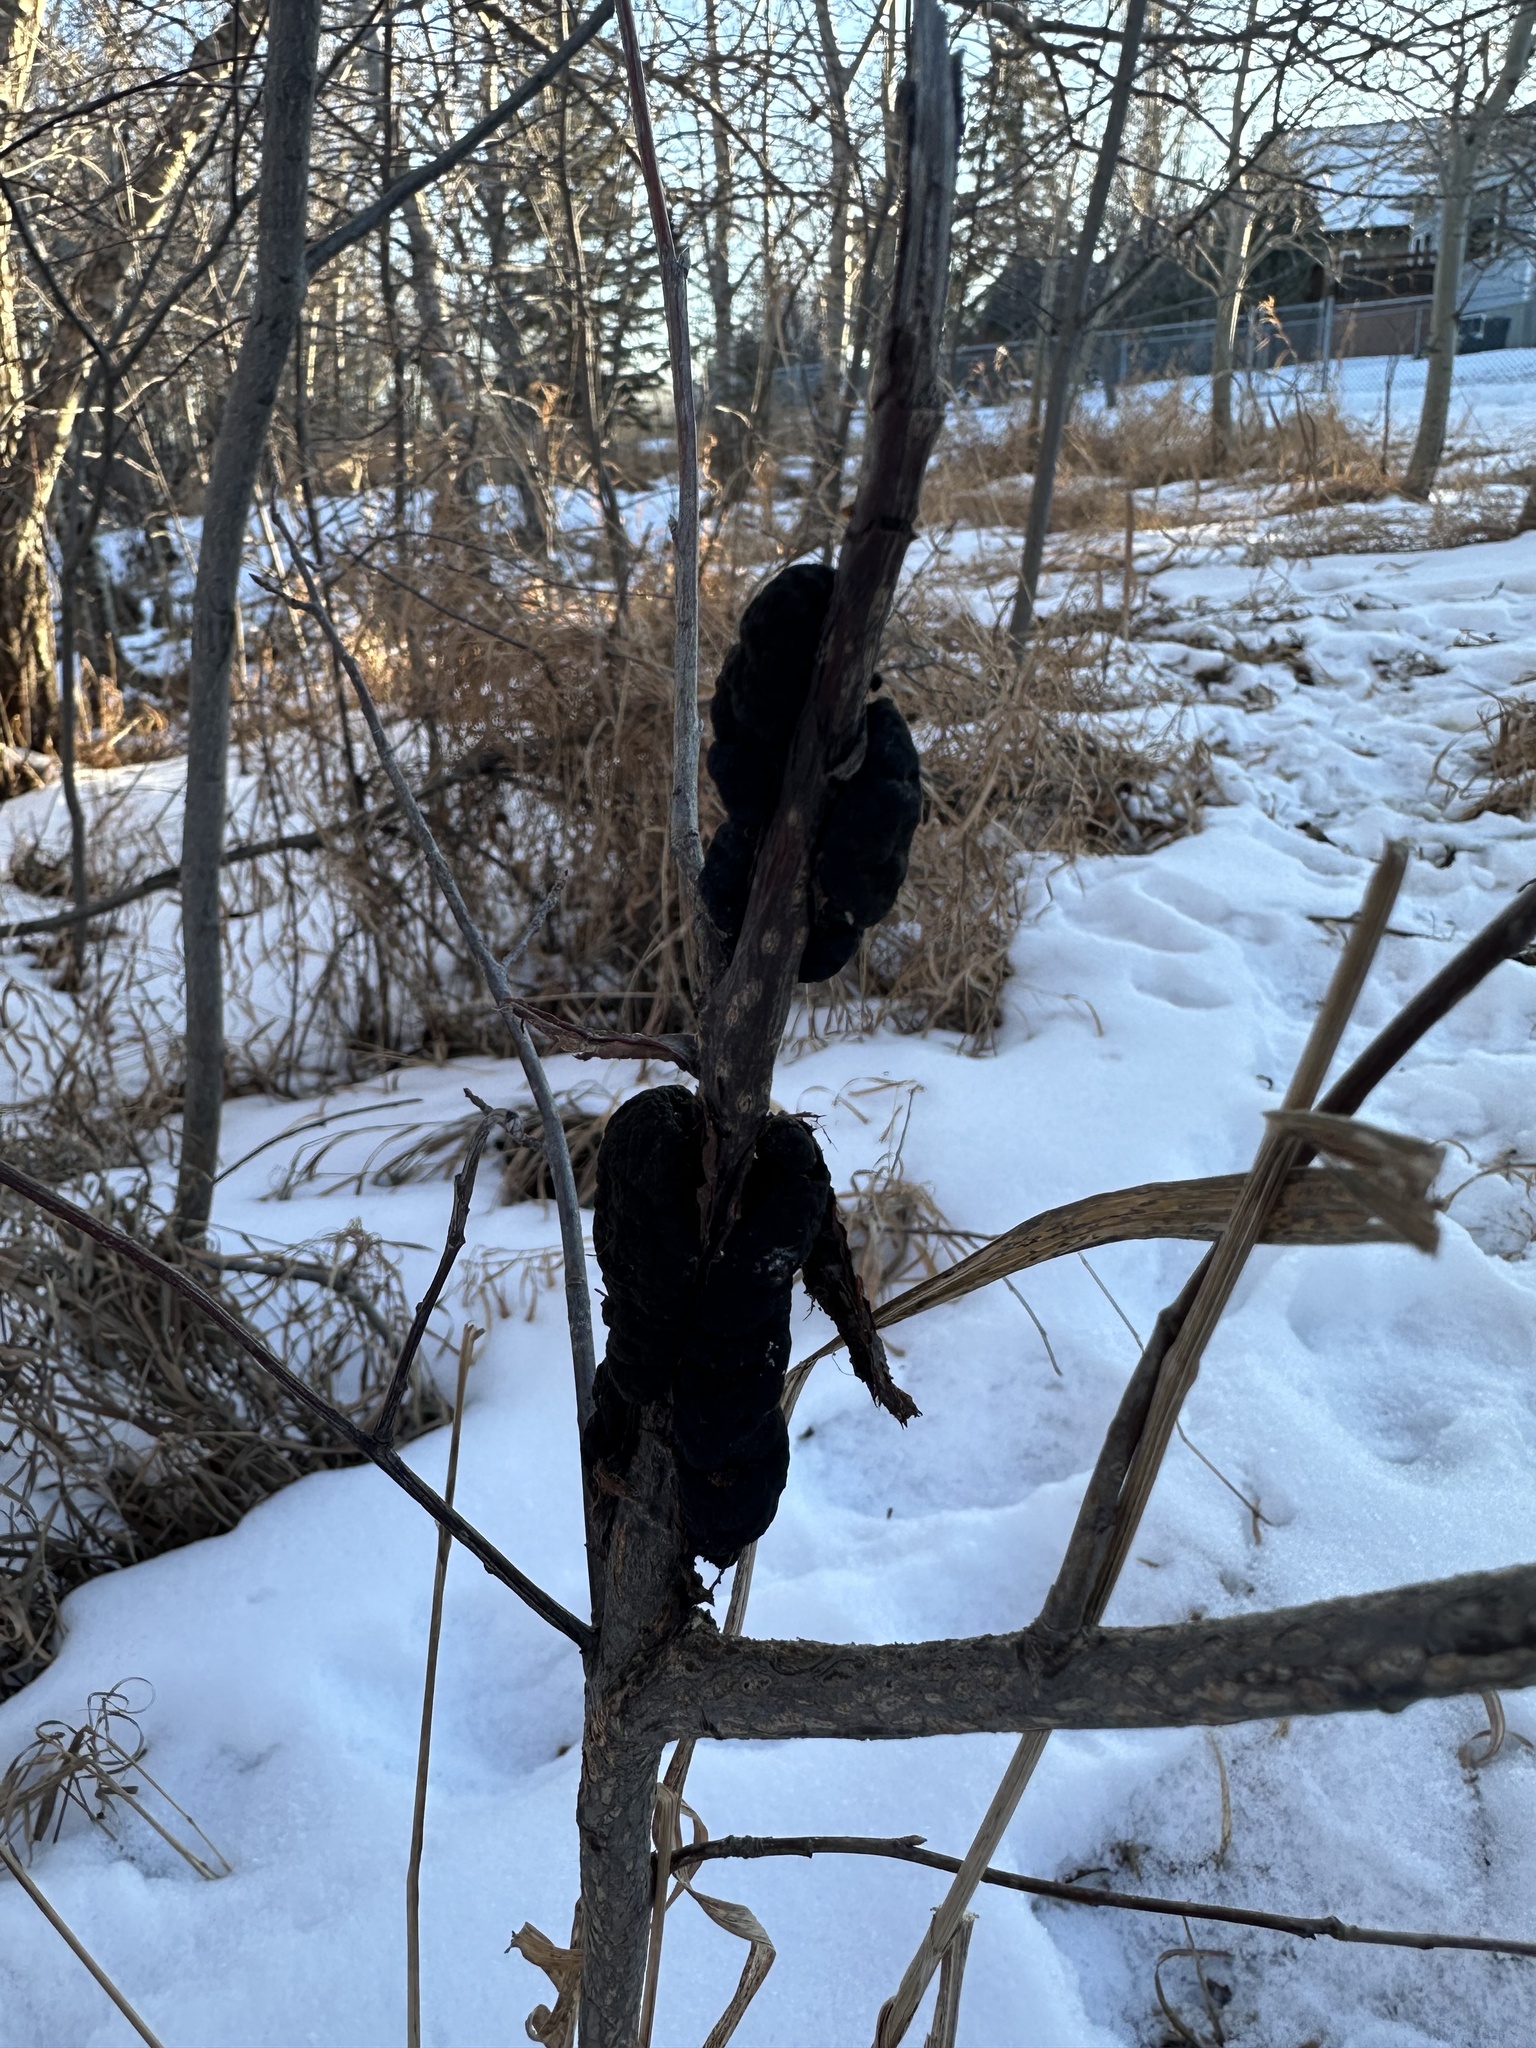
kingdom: Fungi
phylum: Ascomycota
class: Dothideomycetes
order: Venturiales
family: Venturiaceae
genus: Apiosporina
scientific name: Apiosporina morbosa
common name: Black knot
